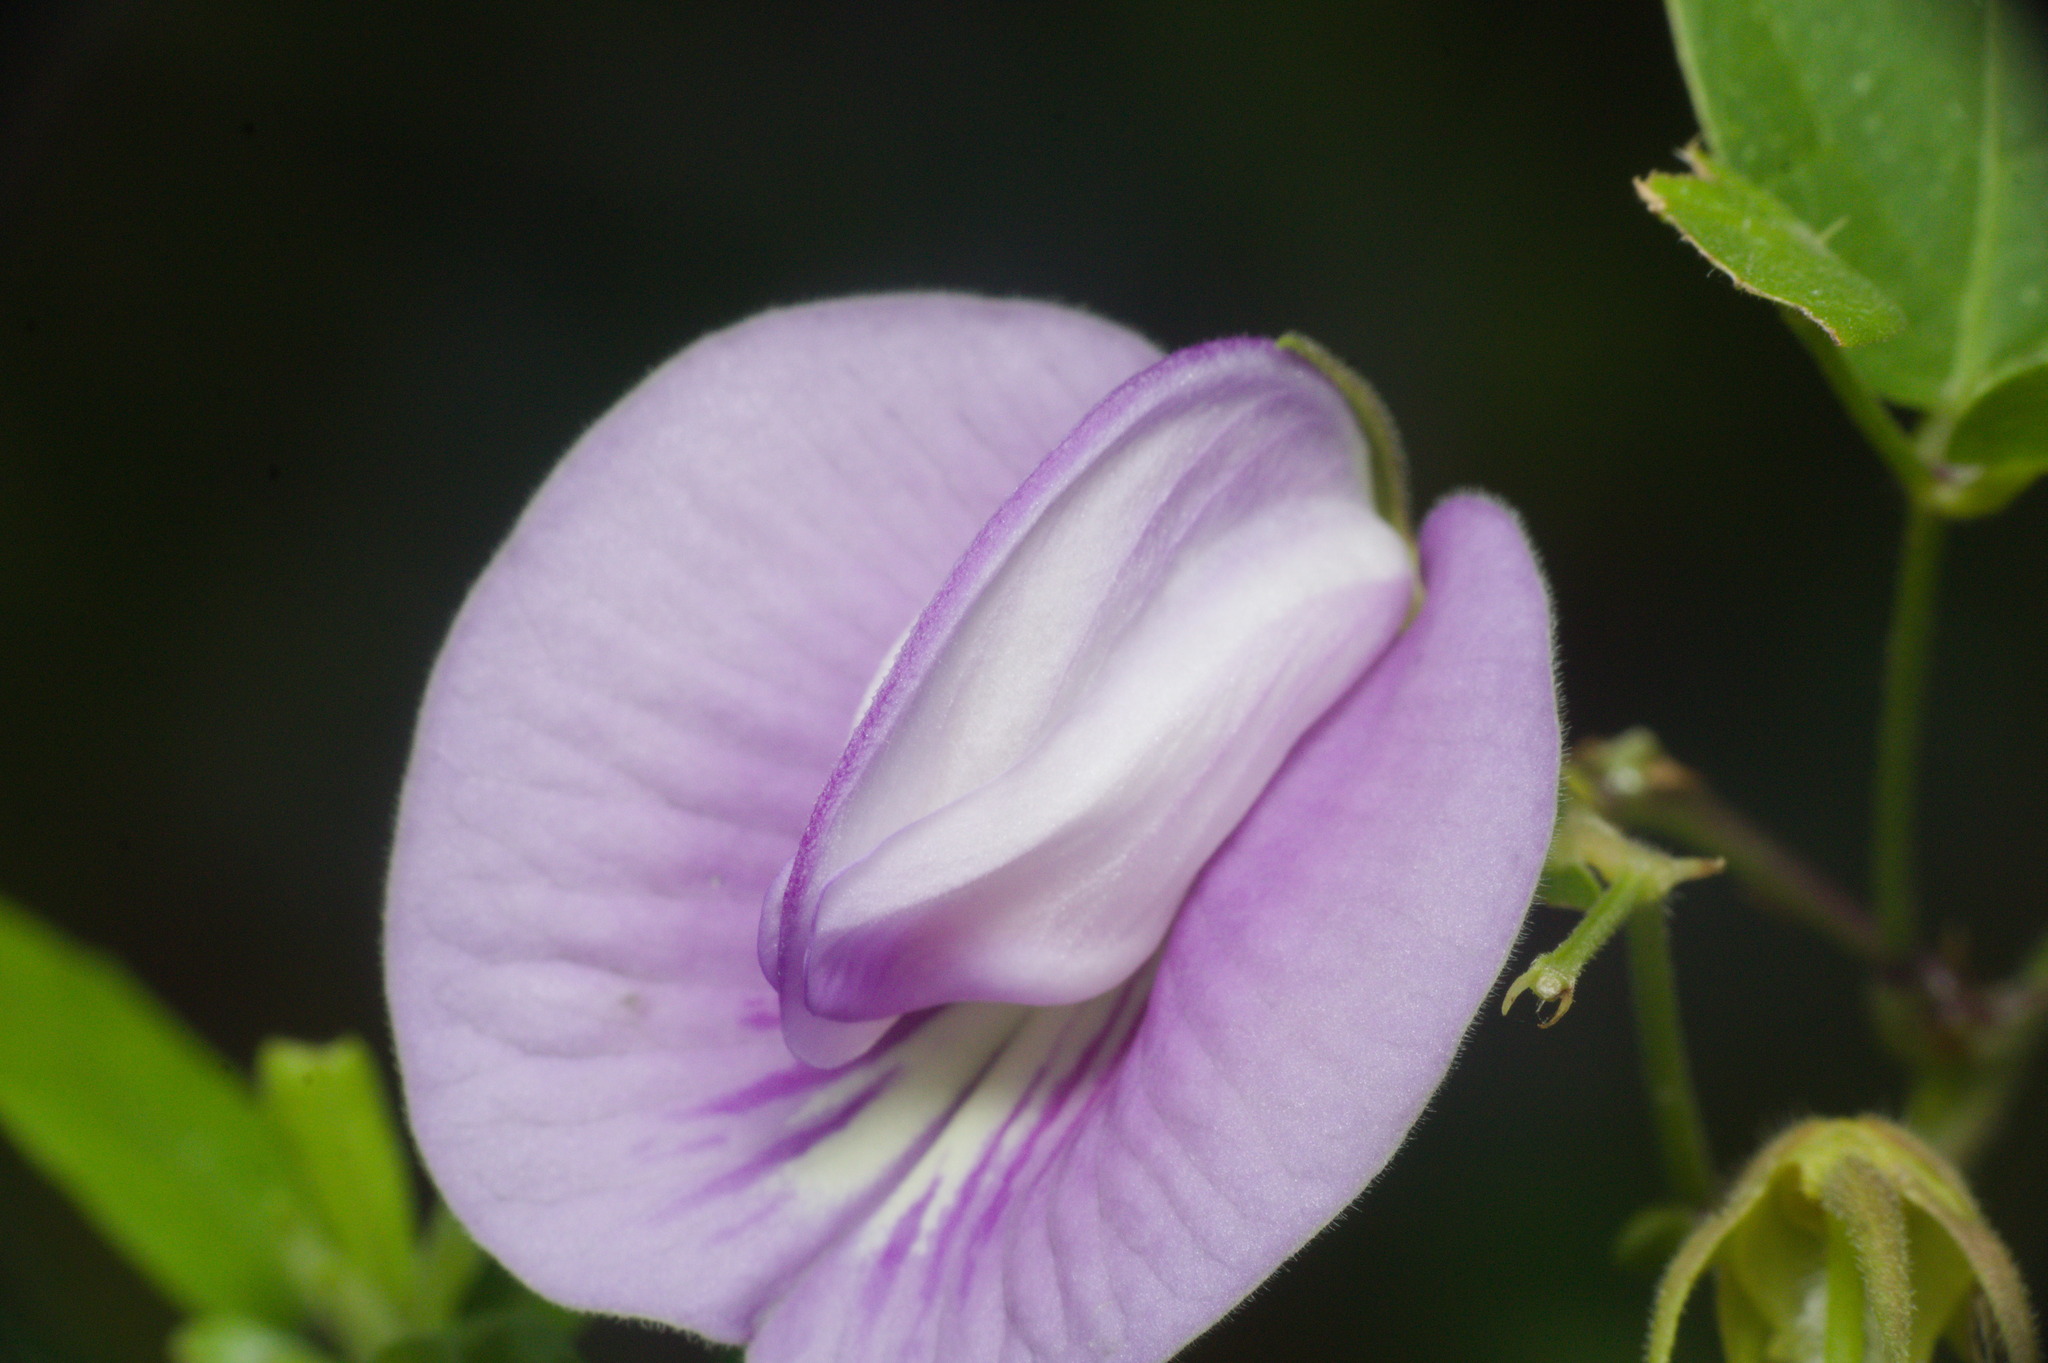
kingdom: Plantae
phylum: Tracheophyta
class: Magnoliopsida
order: Fabales
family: Fabaceae
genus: Centrosema
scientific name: Centrosema virginianum
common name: Butterfly-pea
